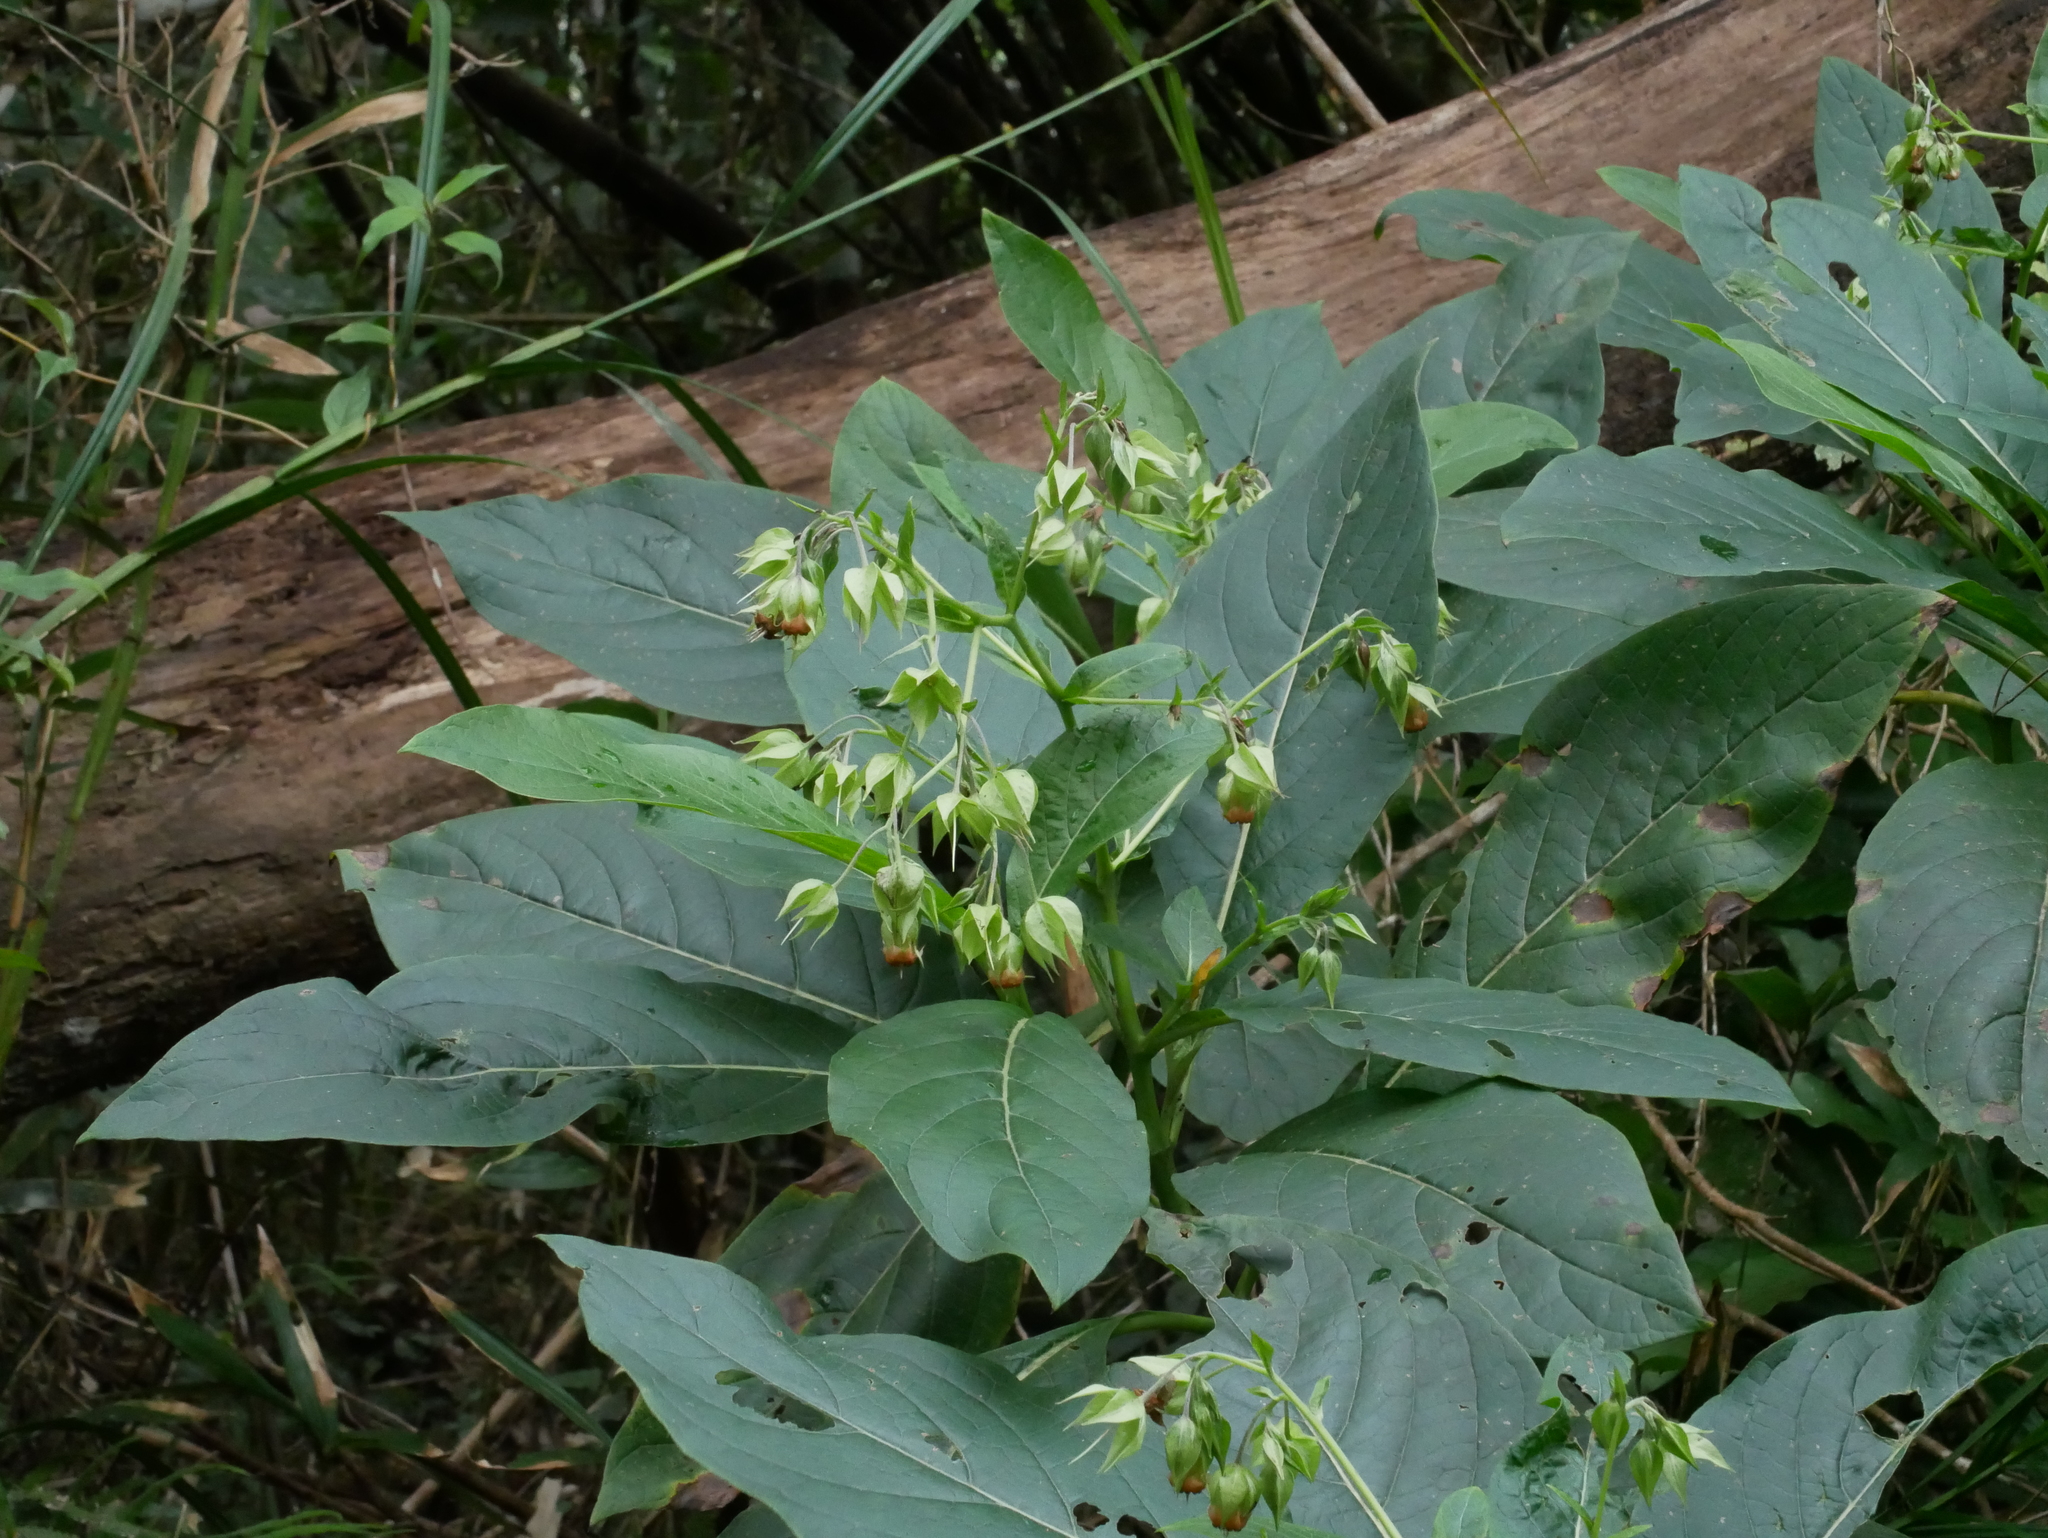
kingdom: Plantae
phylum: Tracheophyta
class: Magnoliopsida
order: Boraginales
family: Boraginaceae
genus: Trichodesma
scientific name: Trichodesma calycosum
